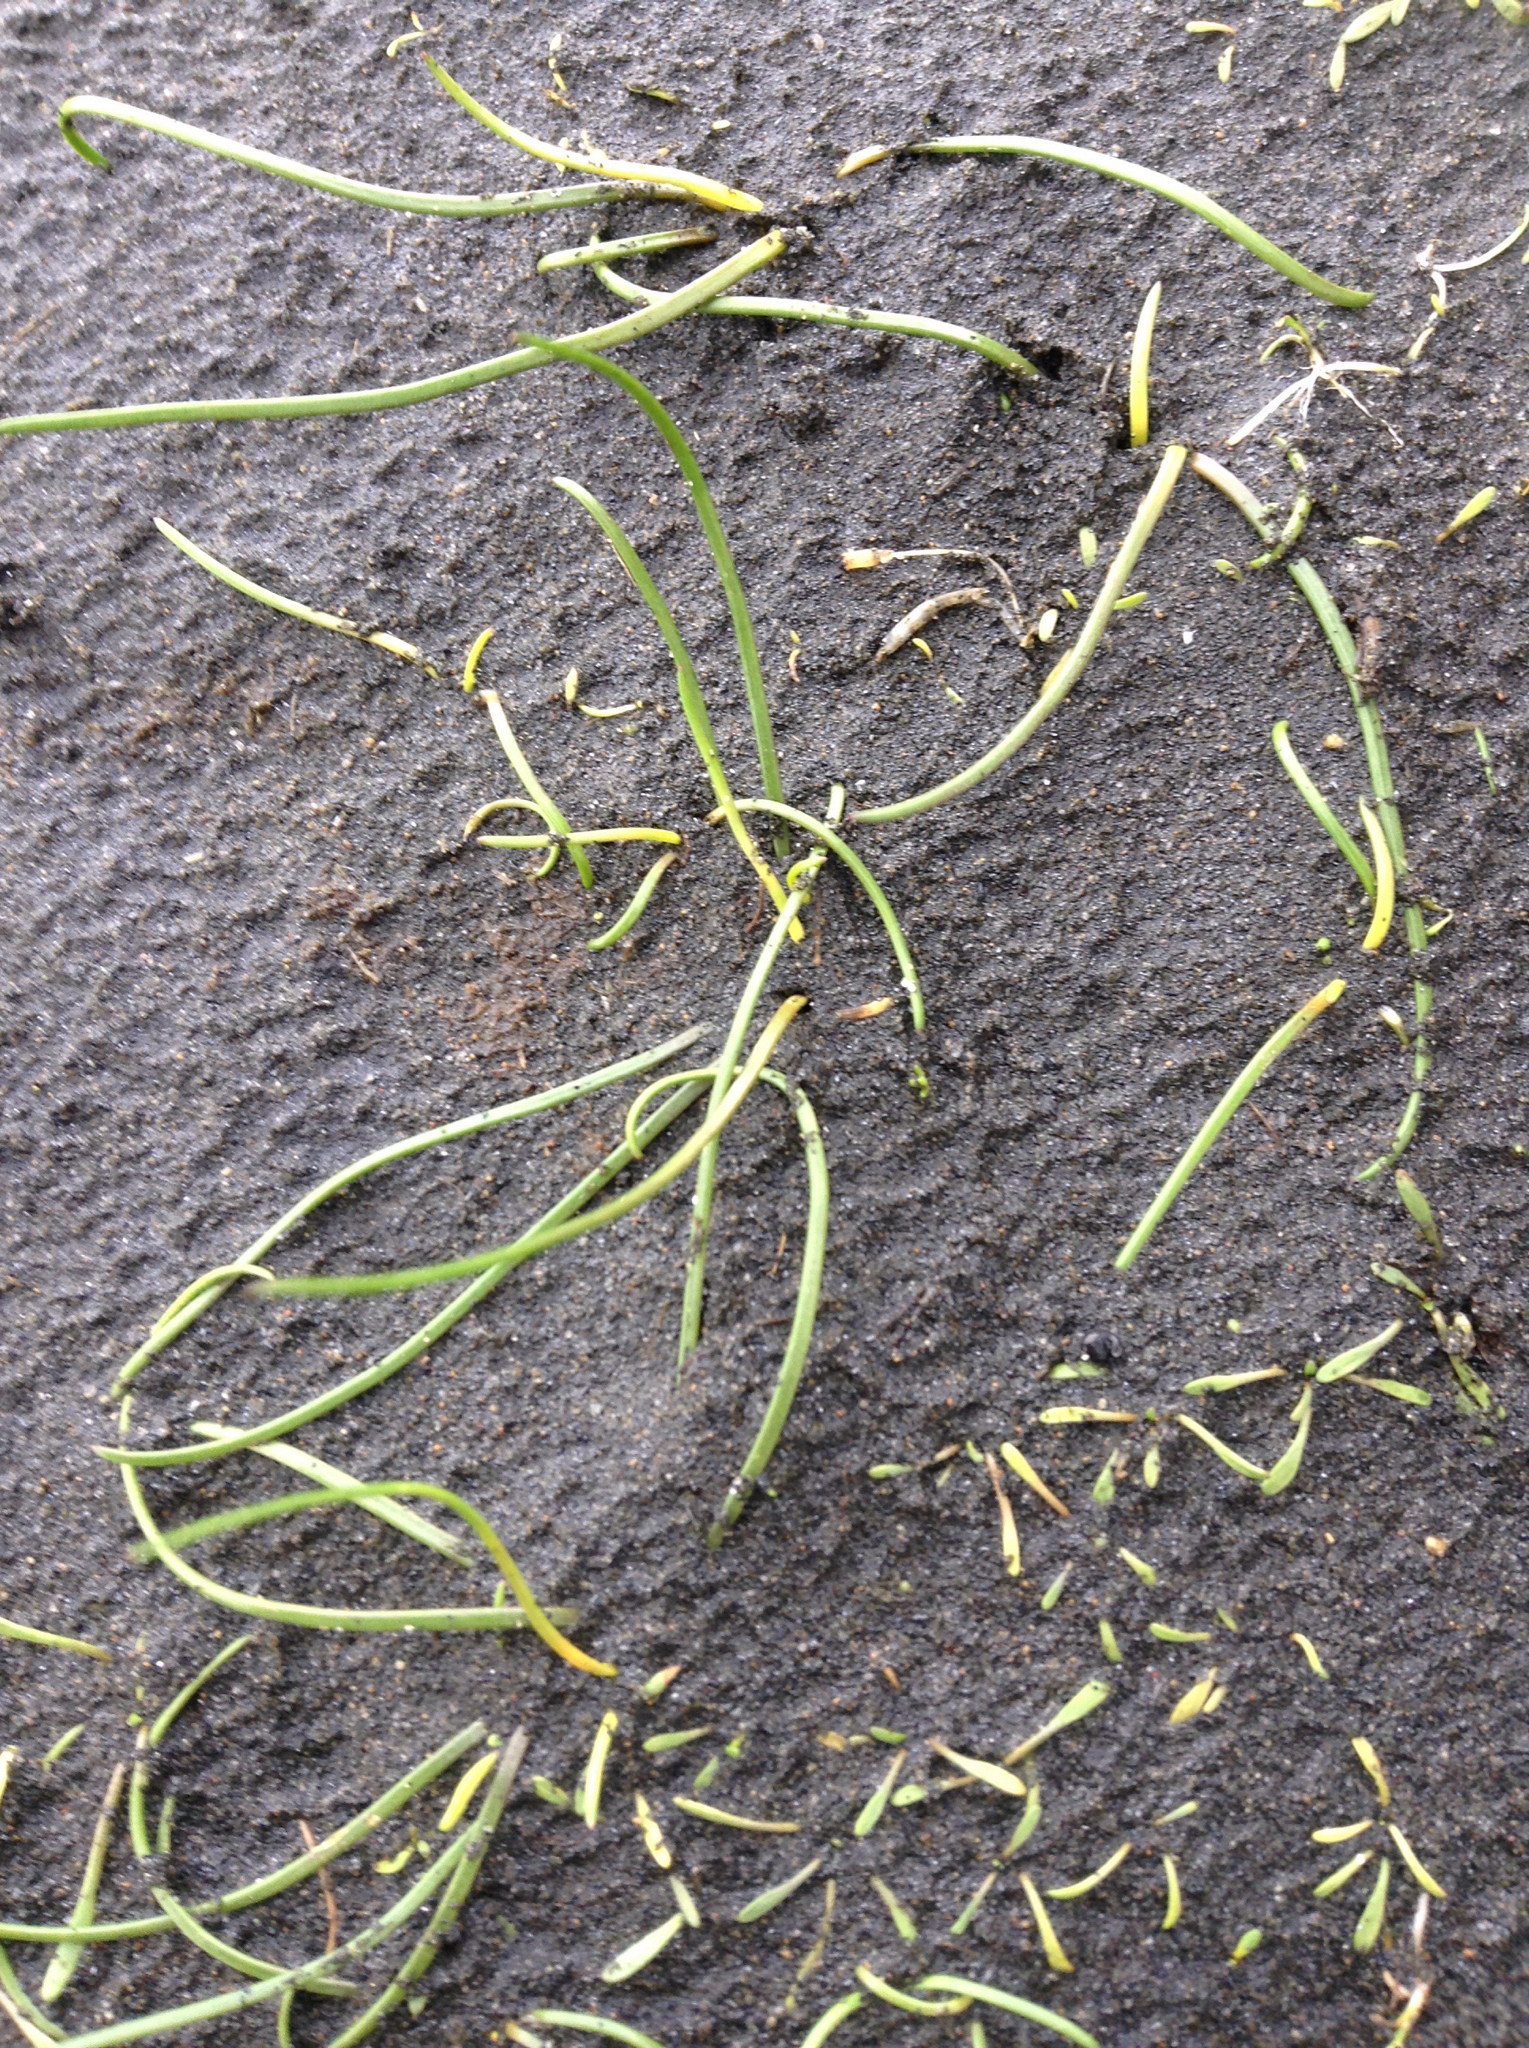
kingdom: Plantae
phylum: Tracheophyta
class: Liliopsida
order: Alismatales
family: Juncaginaceae
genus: Triglochin
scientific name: Triglochin striata
